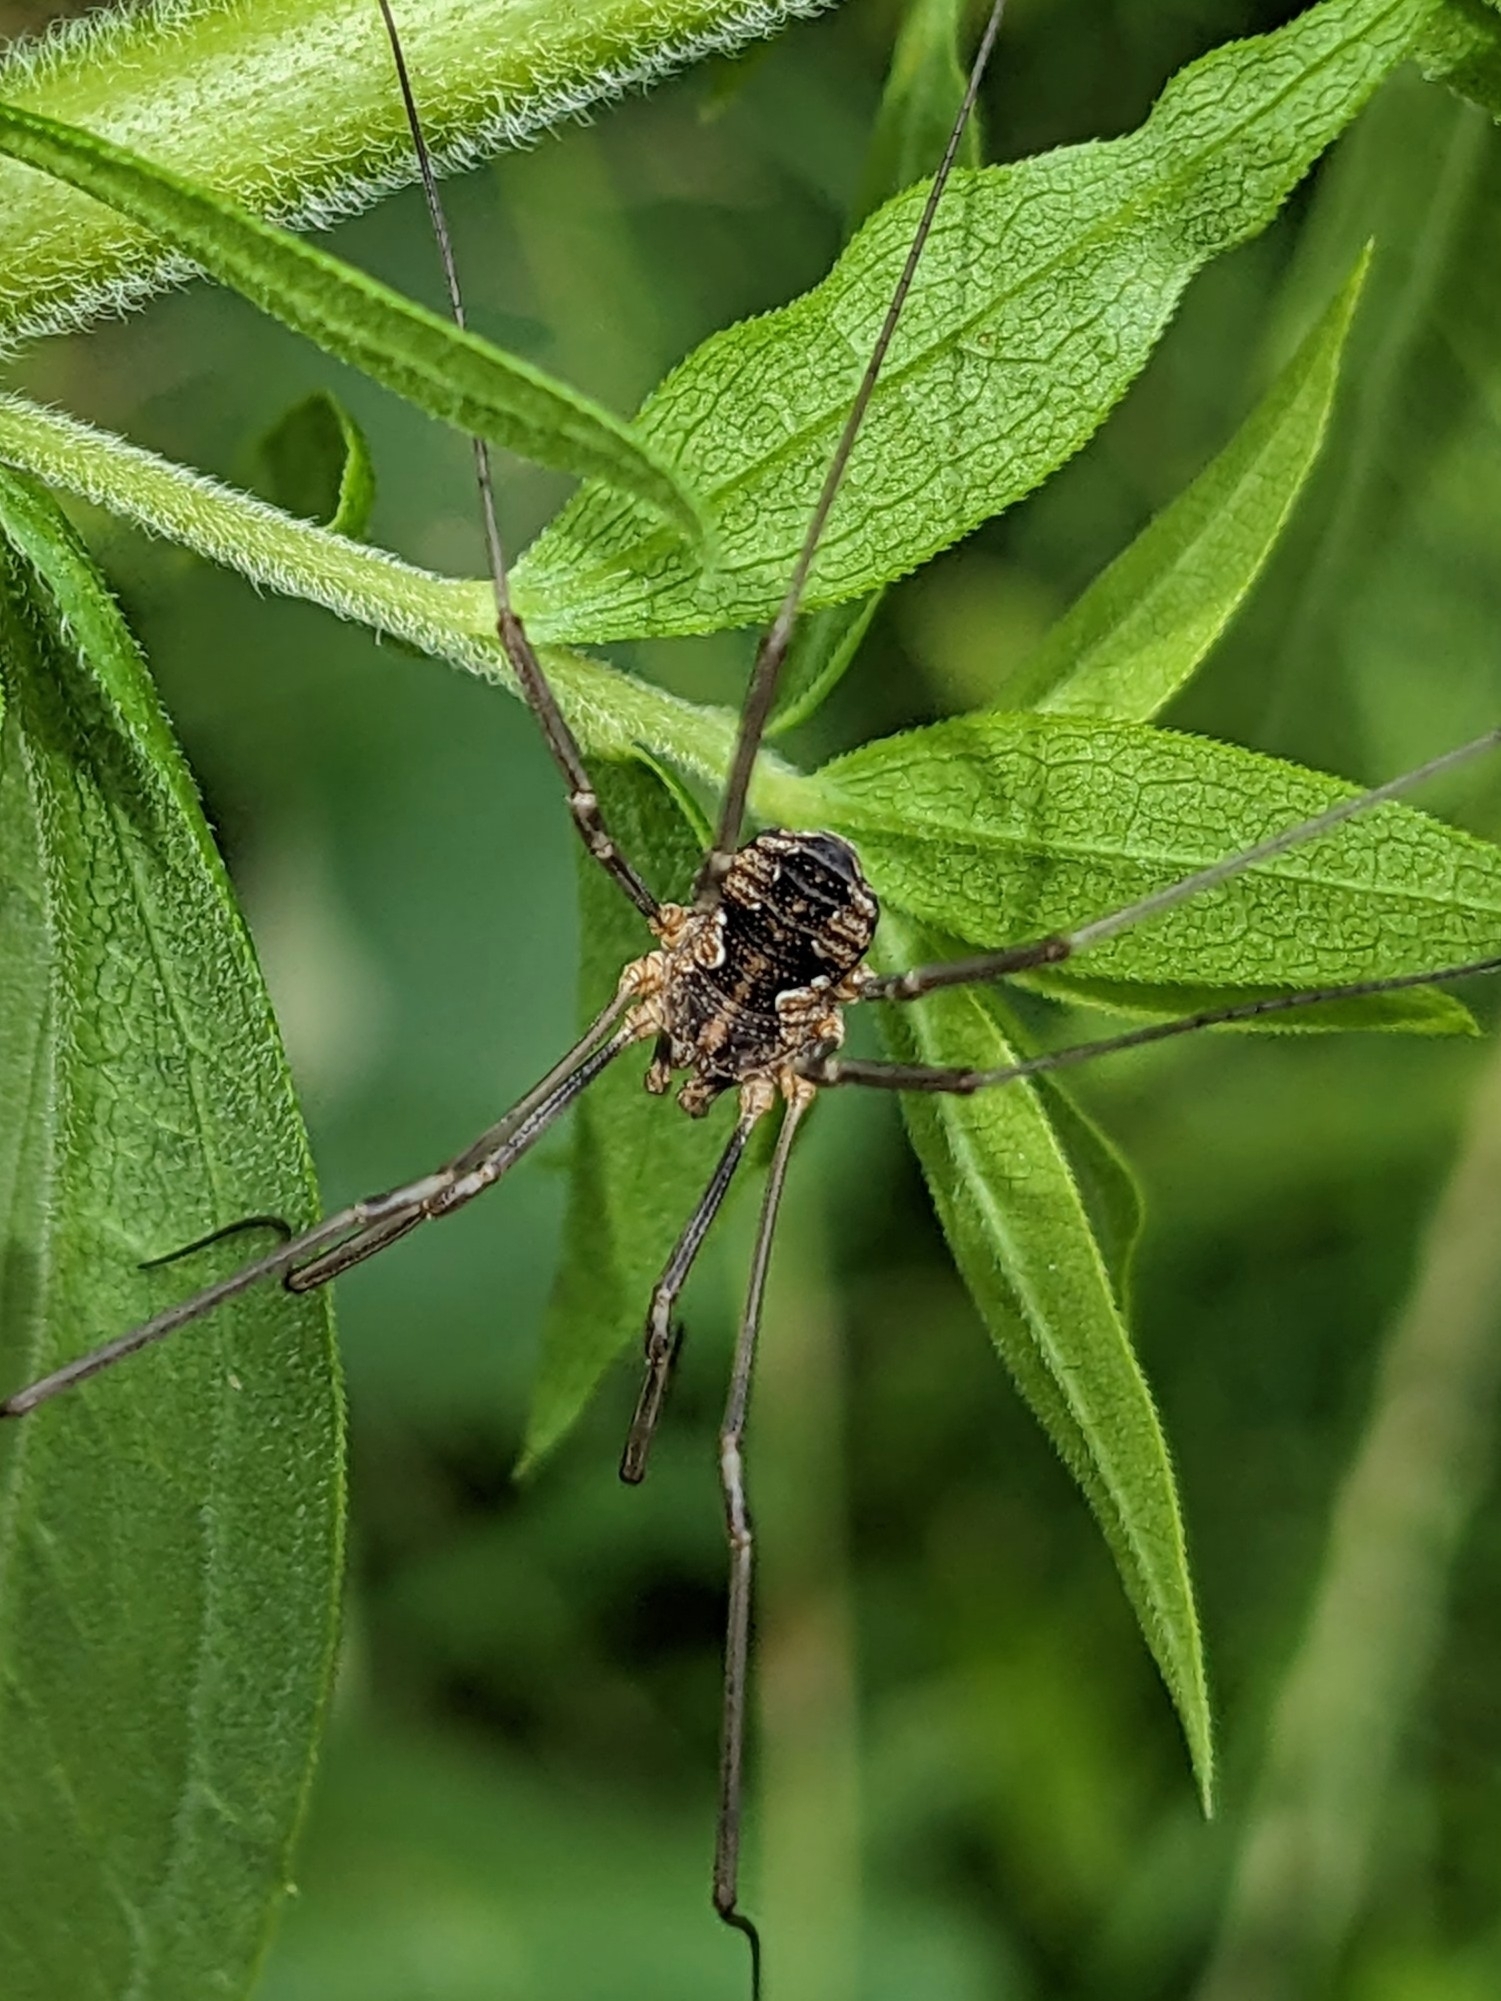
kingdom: Animalia
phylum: Arthropoda
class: Arachnida
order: Opiliones
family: Phalangiidae
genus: Phalangium
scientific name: Phalangium opilio
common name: Daddy longleg
